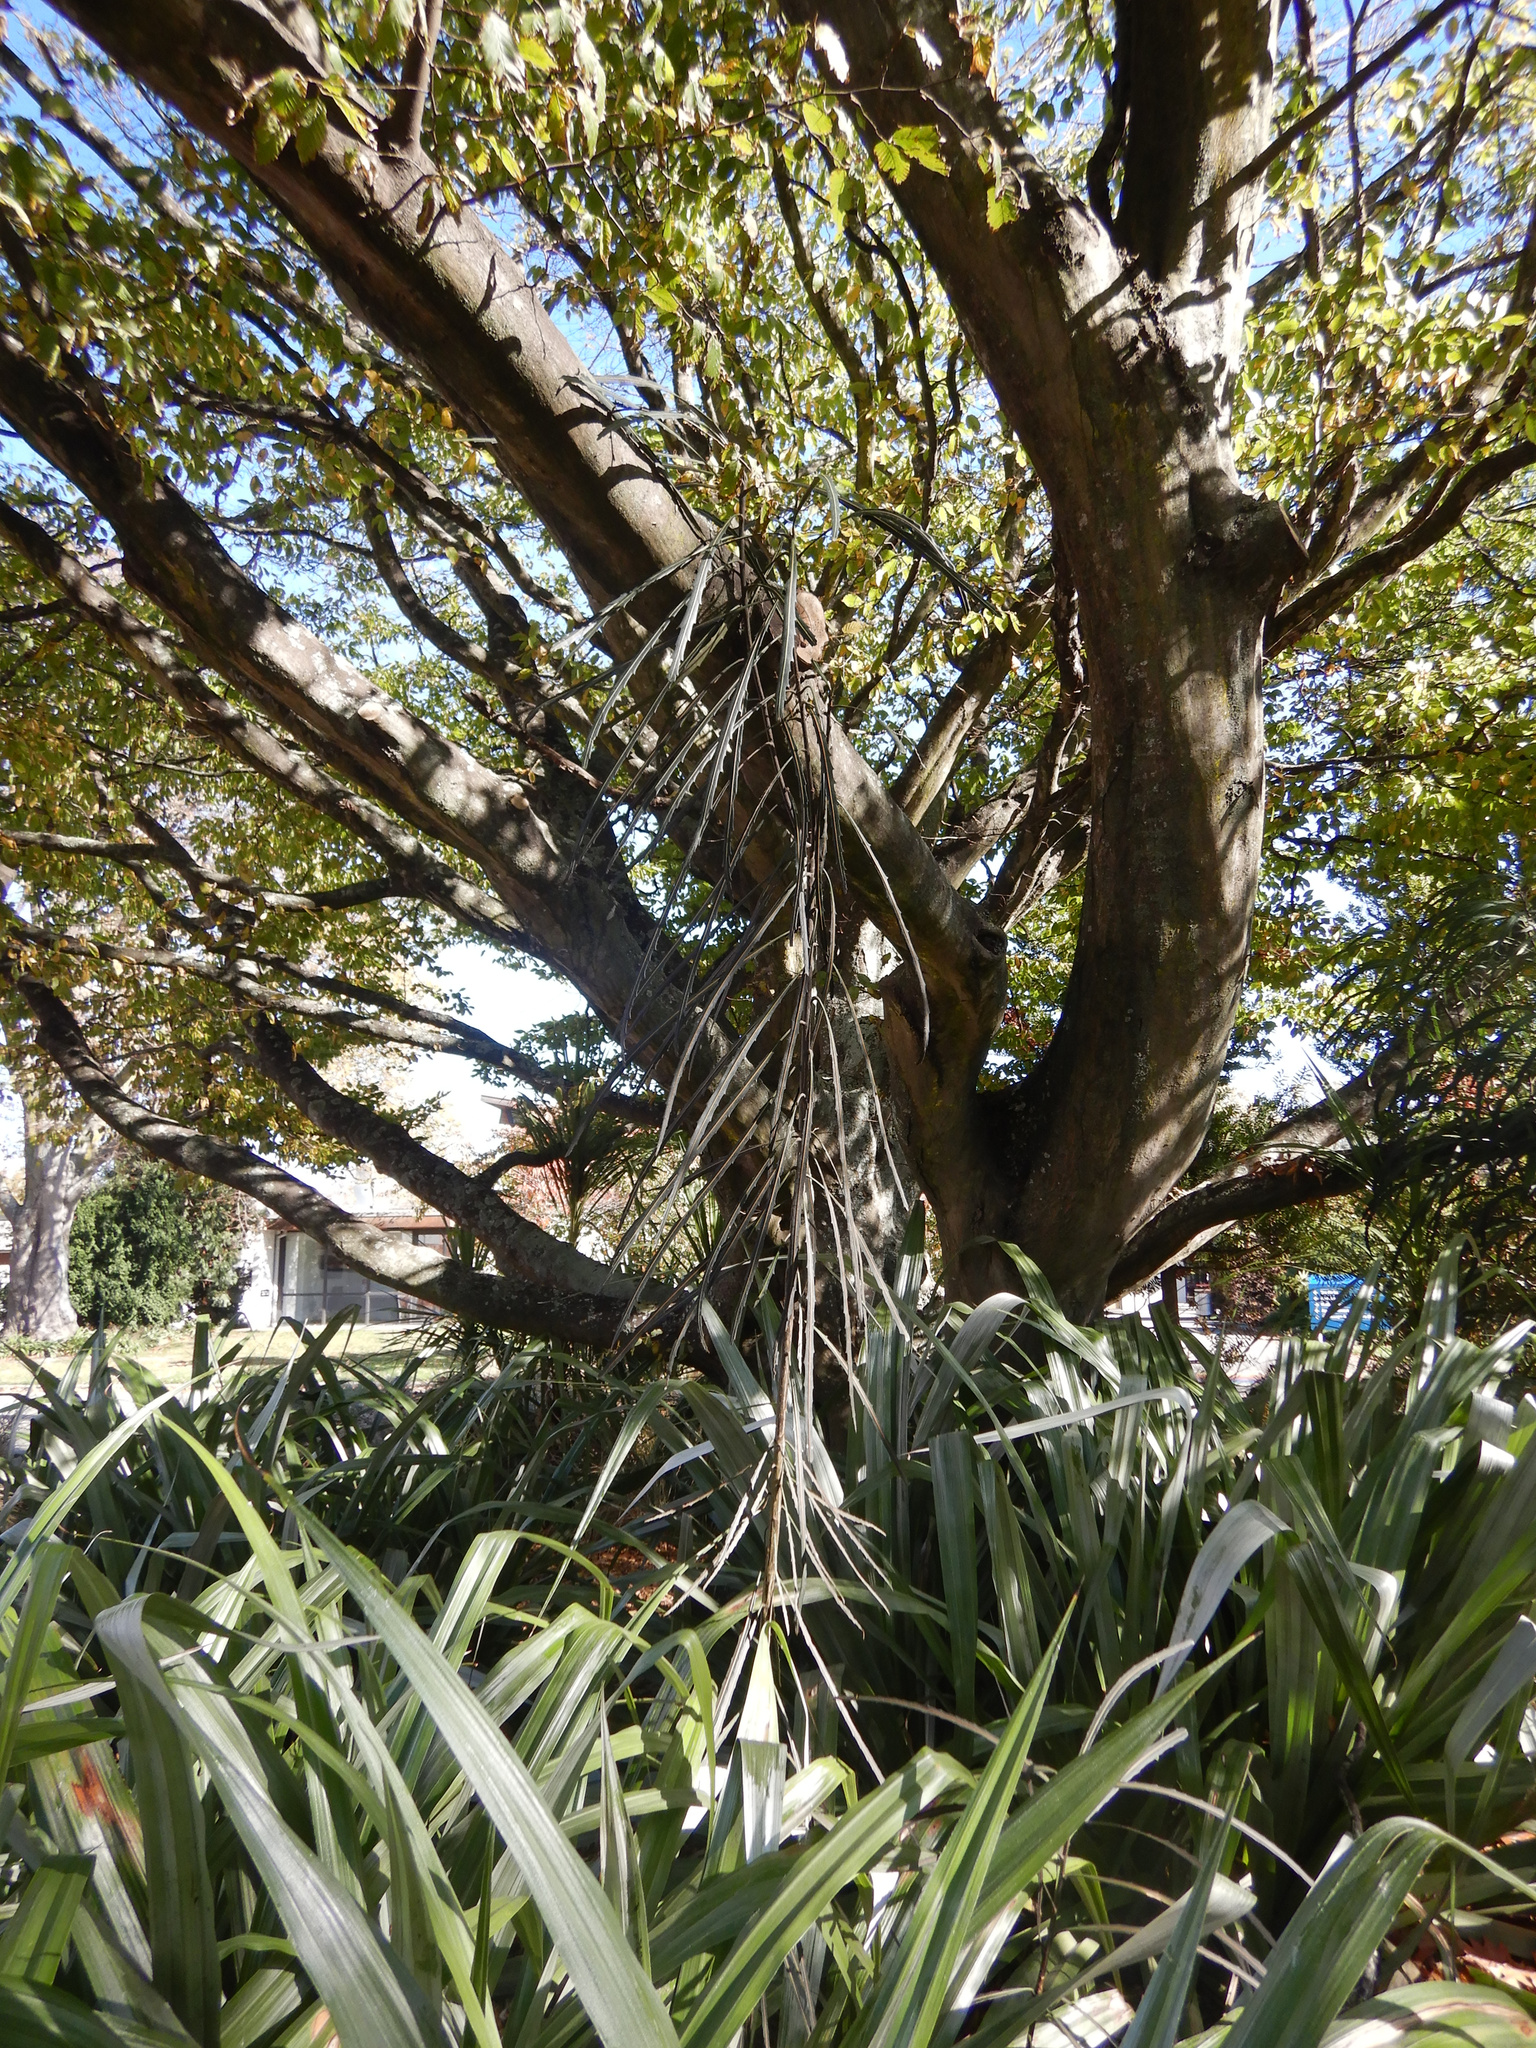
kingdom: Plantae
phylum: Tracheophyta
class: Magnoliopsida
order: Apiales
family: Araliaceae
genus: Pseudopanax
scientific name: Pseudopanax crassifolius
